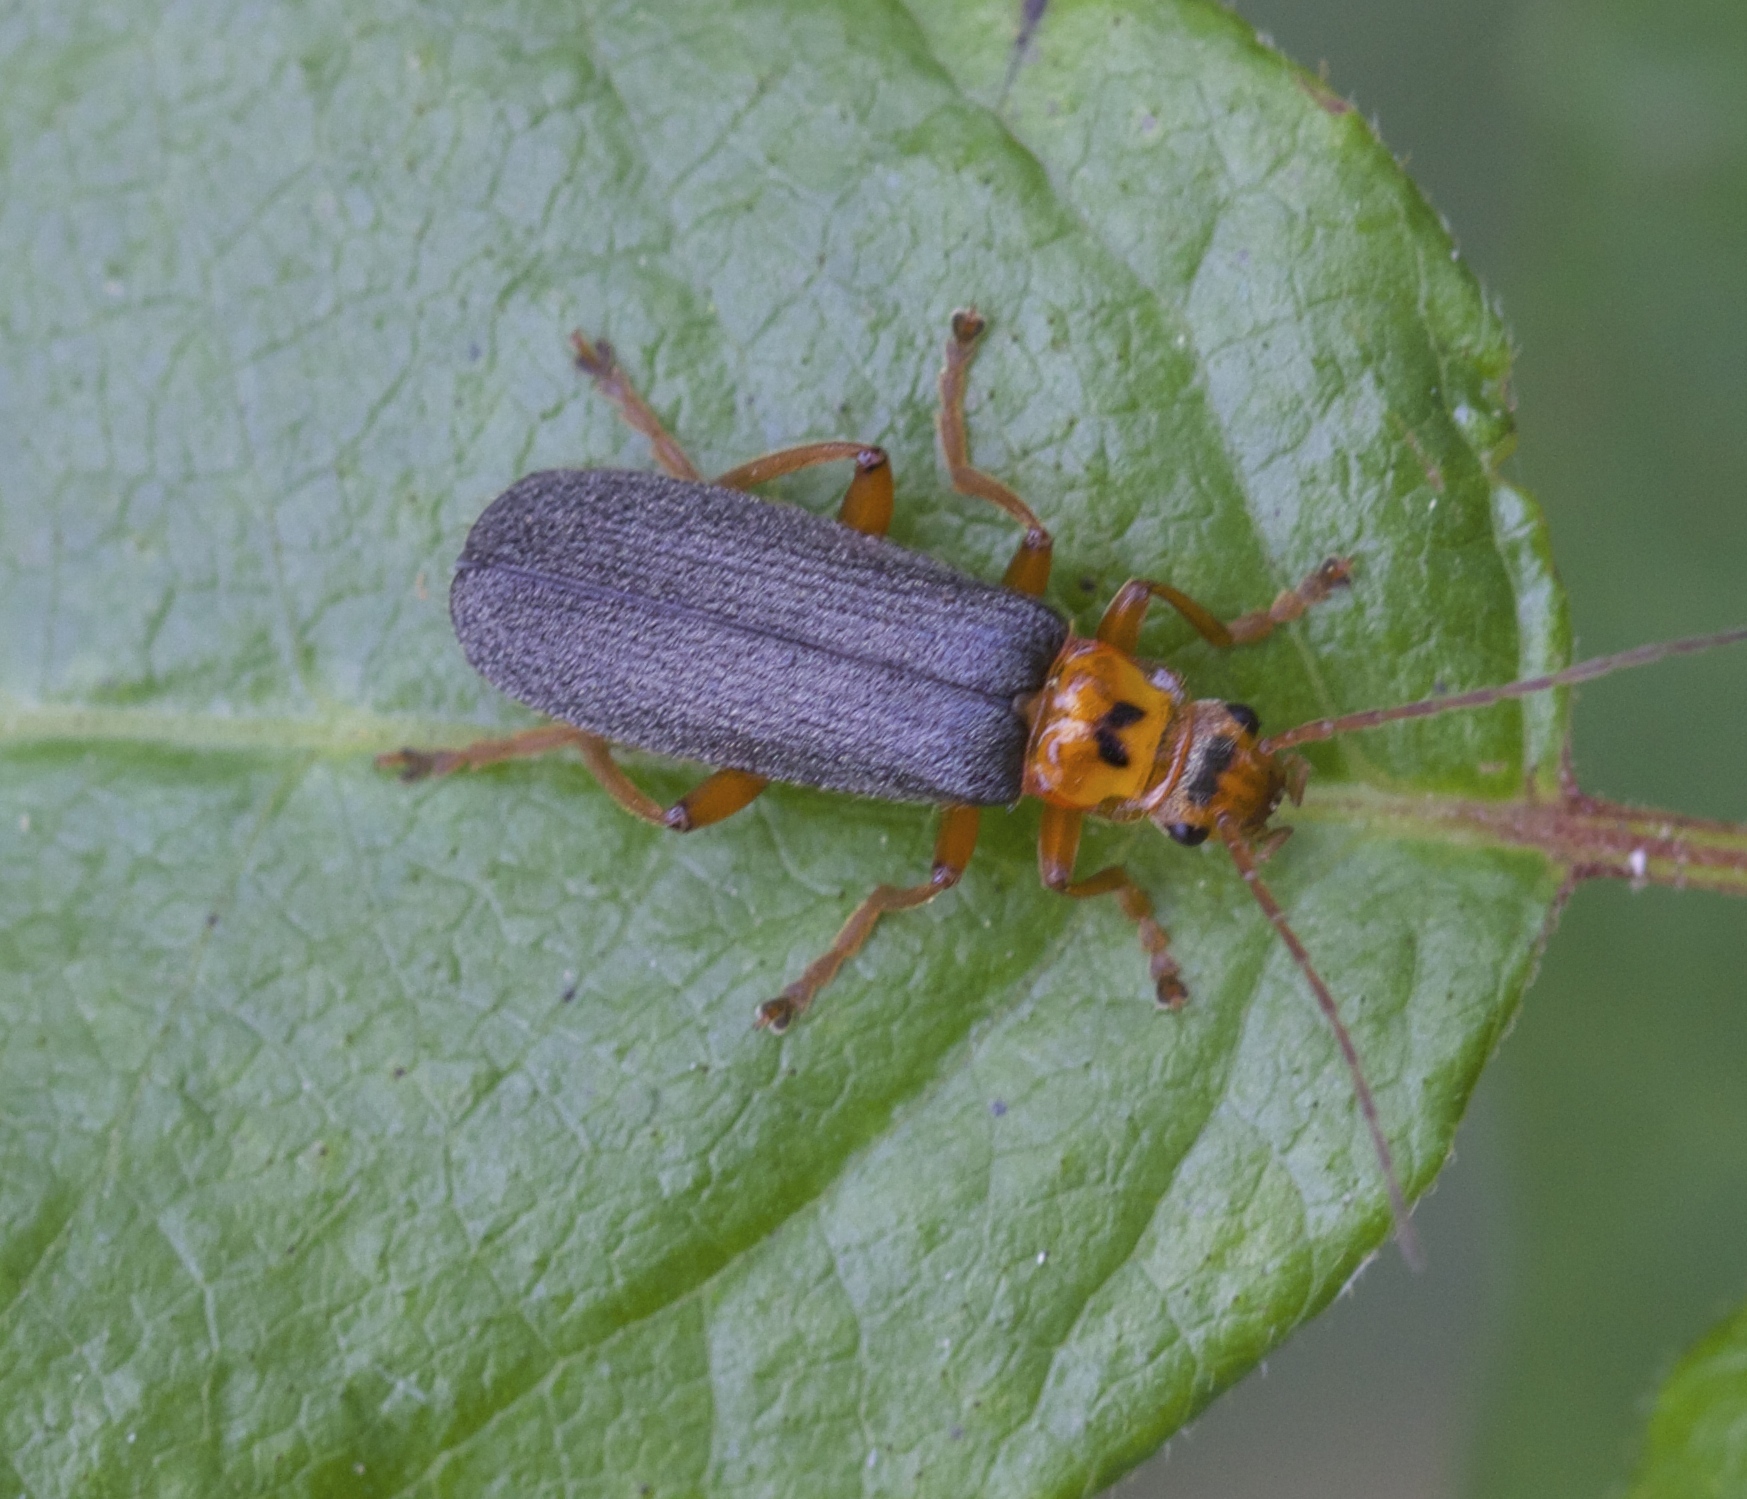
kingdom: Animalia
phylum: Arthropoda
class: Insecta
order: Coleoptera
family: Cantharidae
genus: Cultellunguis
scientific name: Cultellunguis americanus
